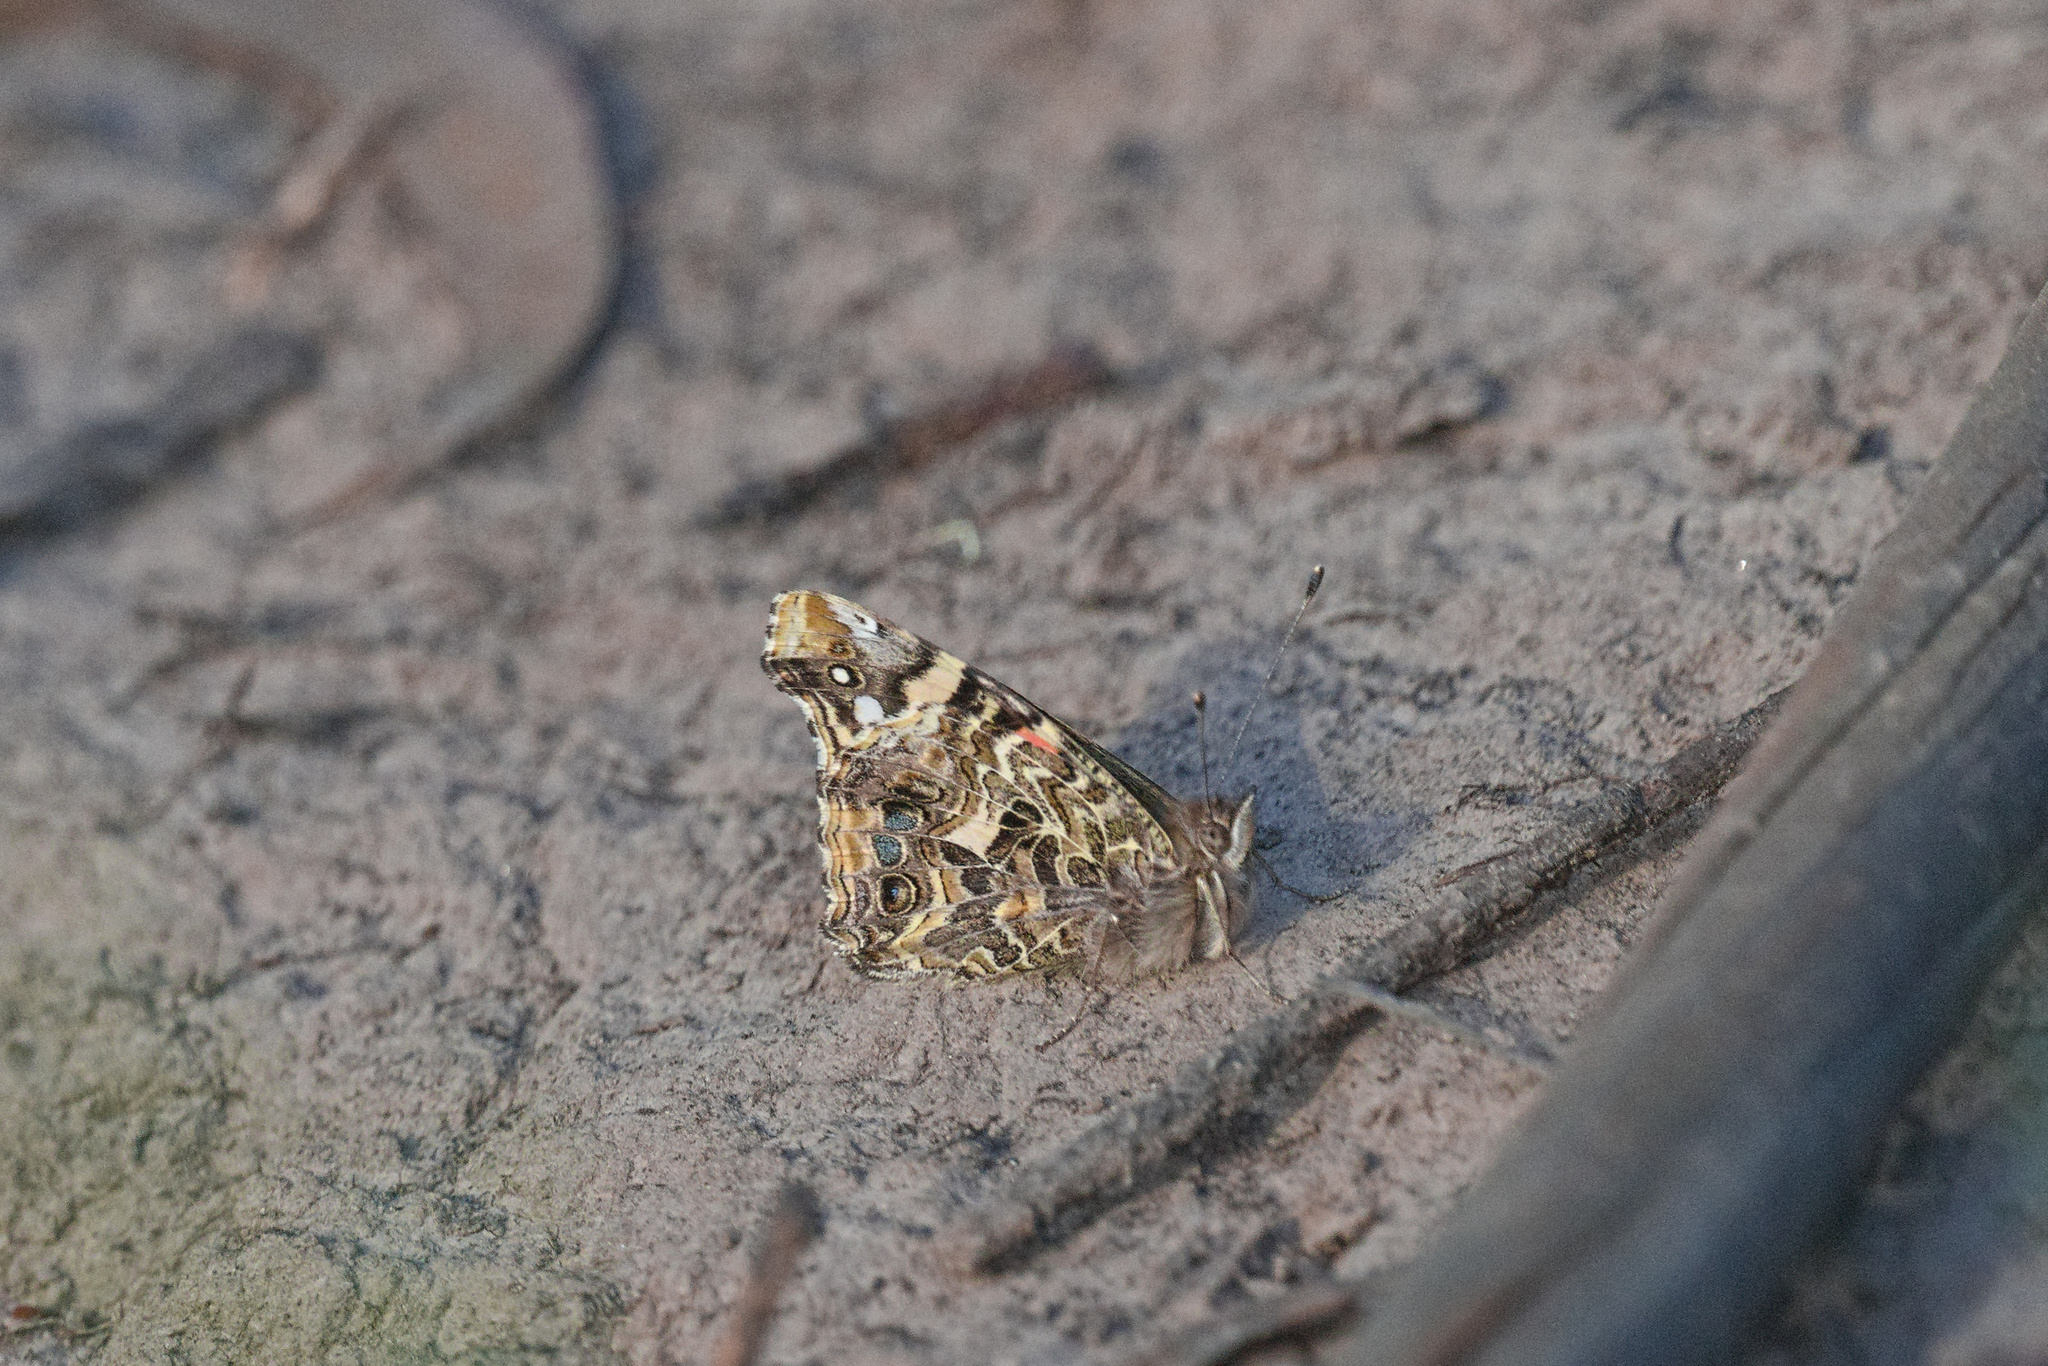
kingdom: Animalia
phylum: Arthropoda
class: Insecta
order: Lepidoptera
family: Nymphalidae
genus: Vanessa
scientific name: Vanessa carye
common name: Subtropical lady
